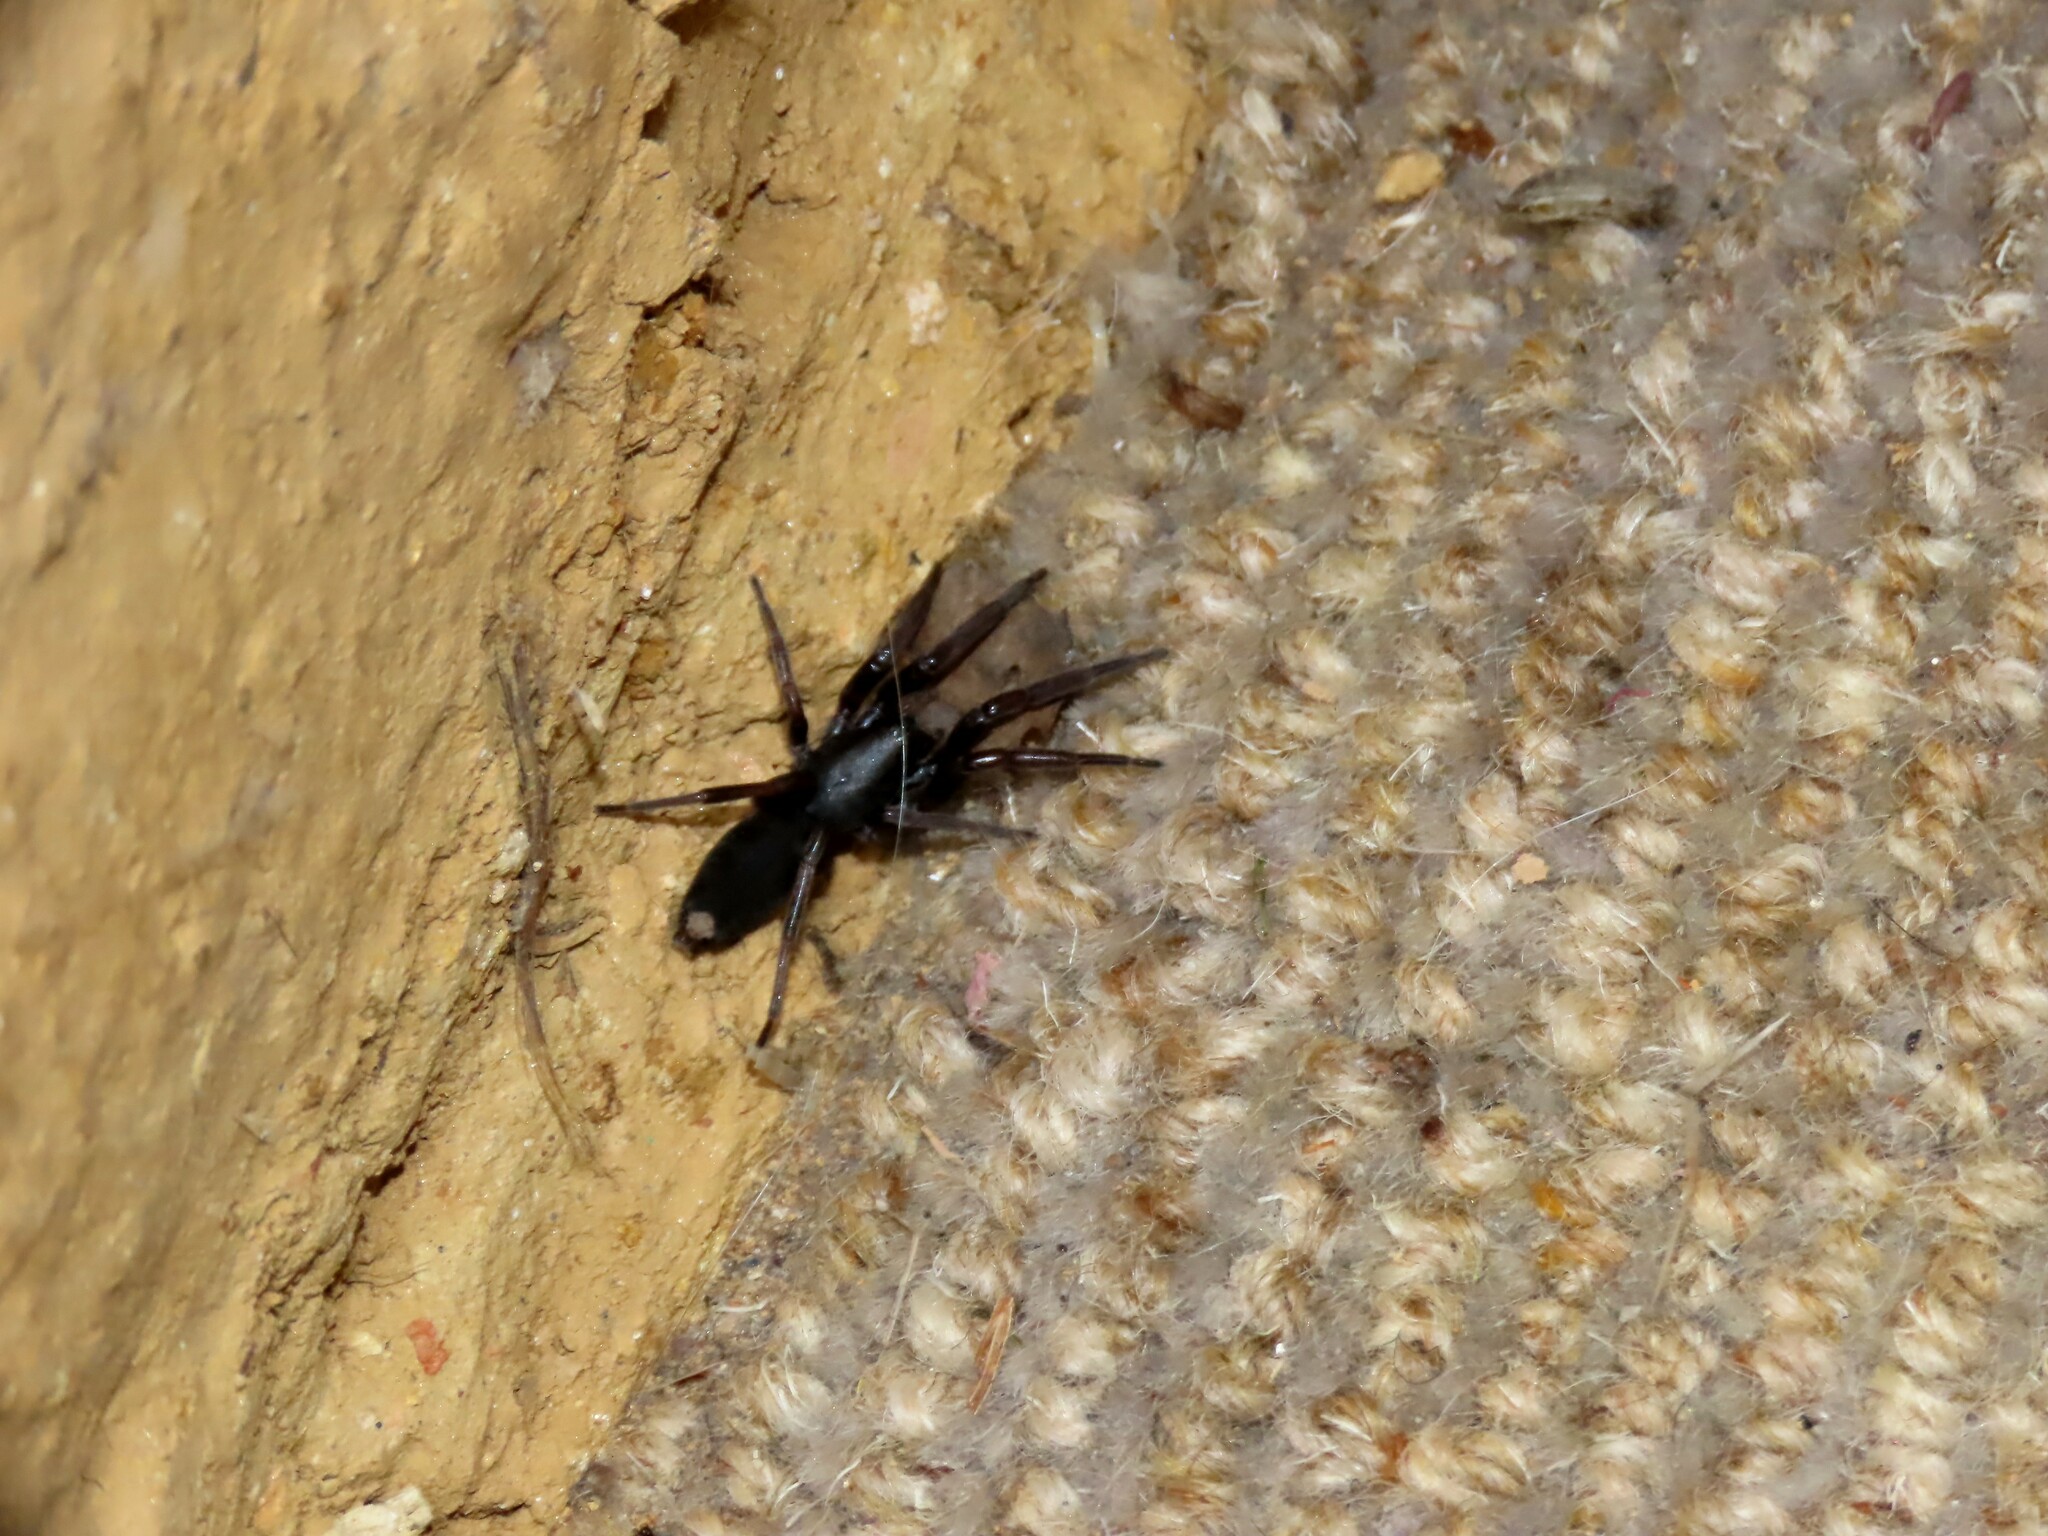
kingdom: Animalia
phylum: Arthropoda
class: Arachnida
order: Araneae
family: Lamponidae
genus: Lampona
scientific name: Lampona
